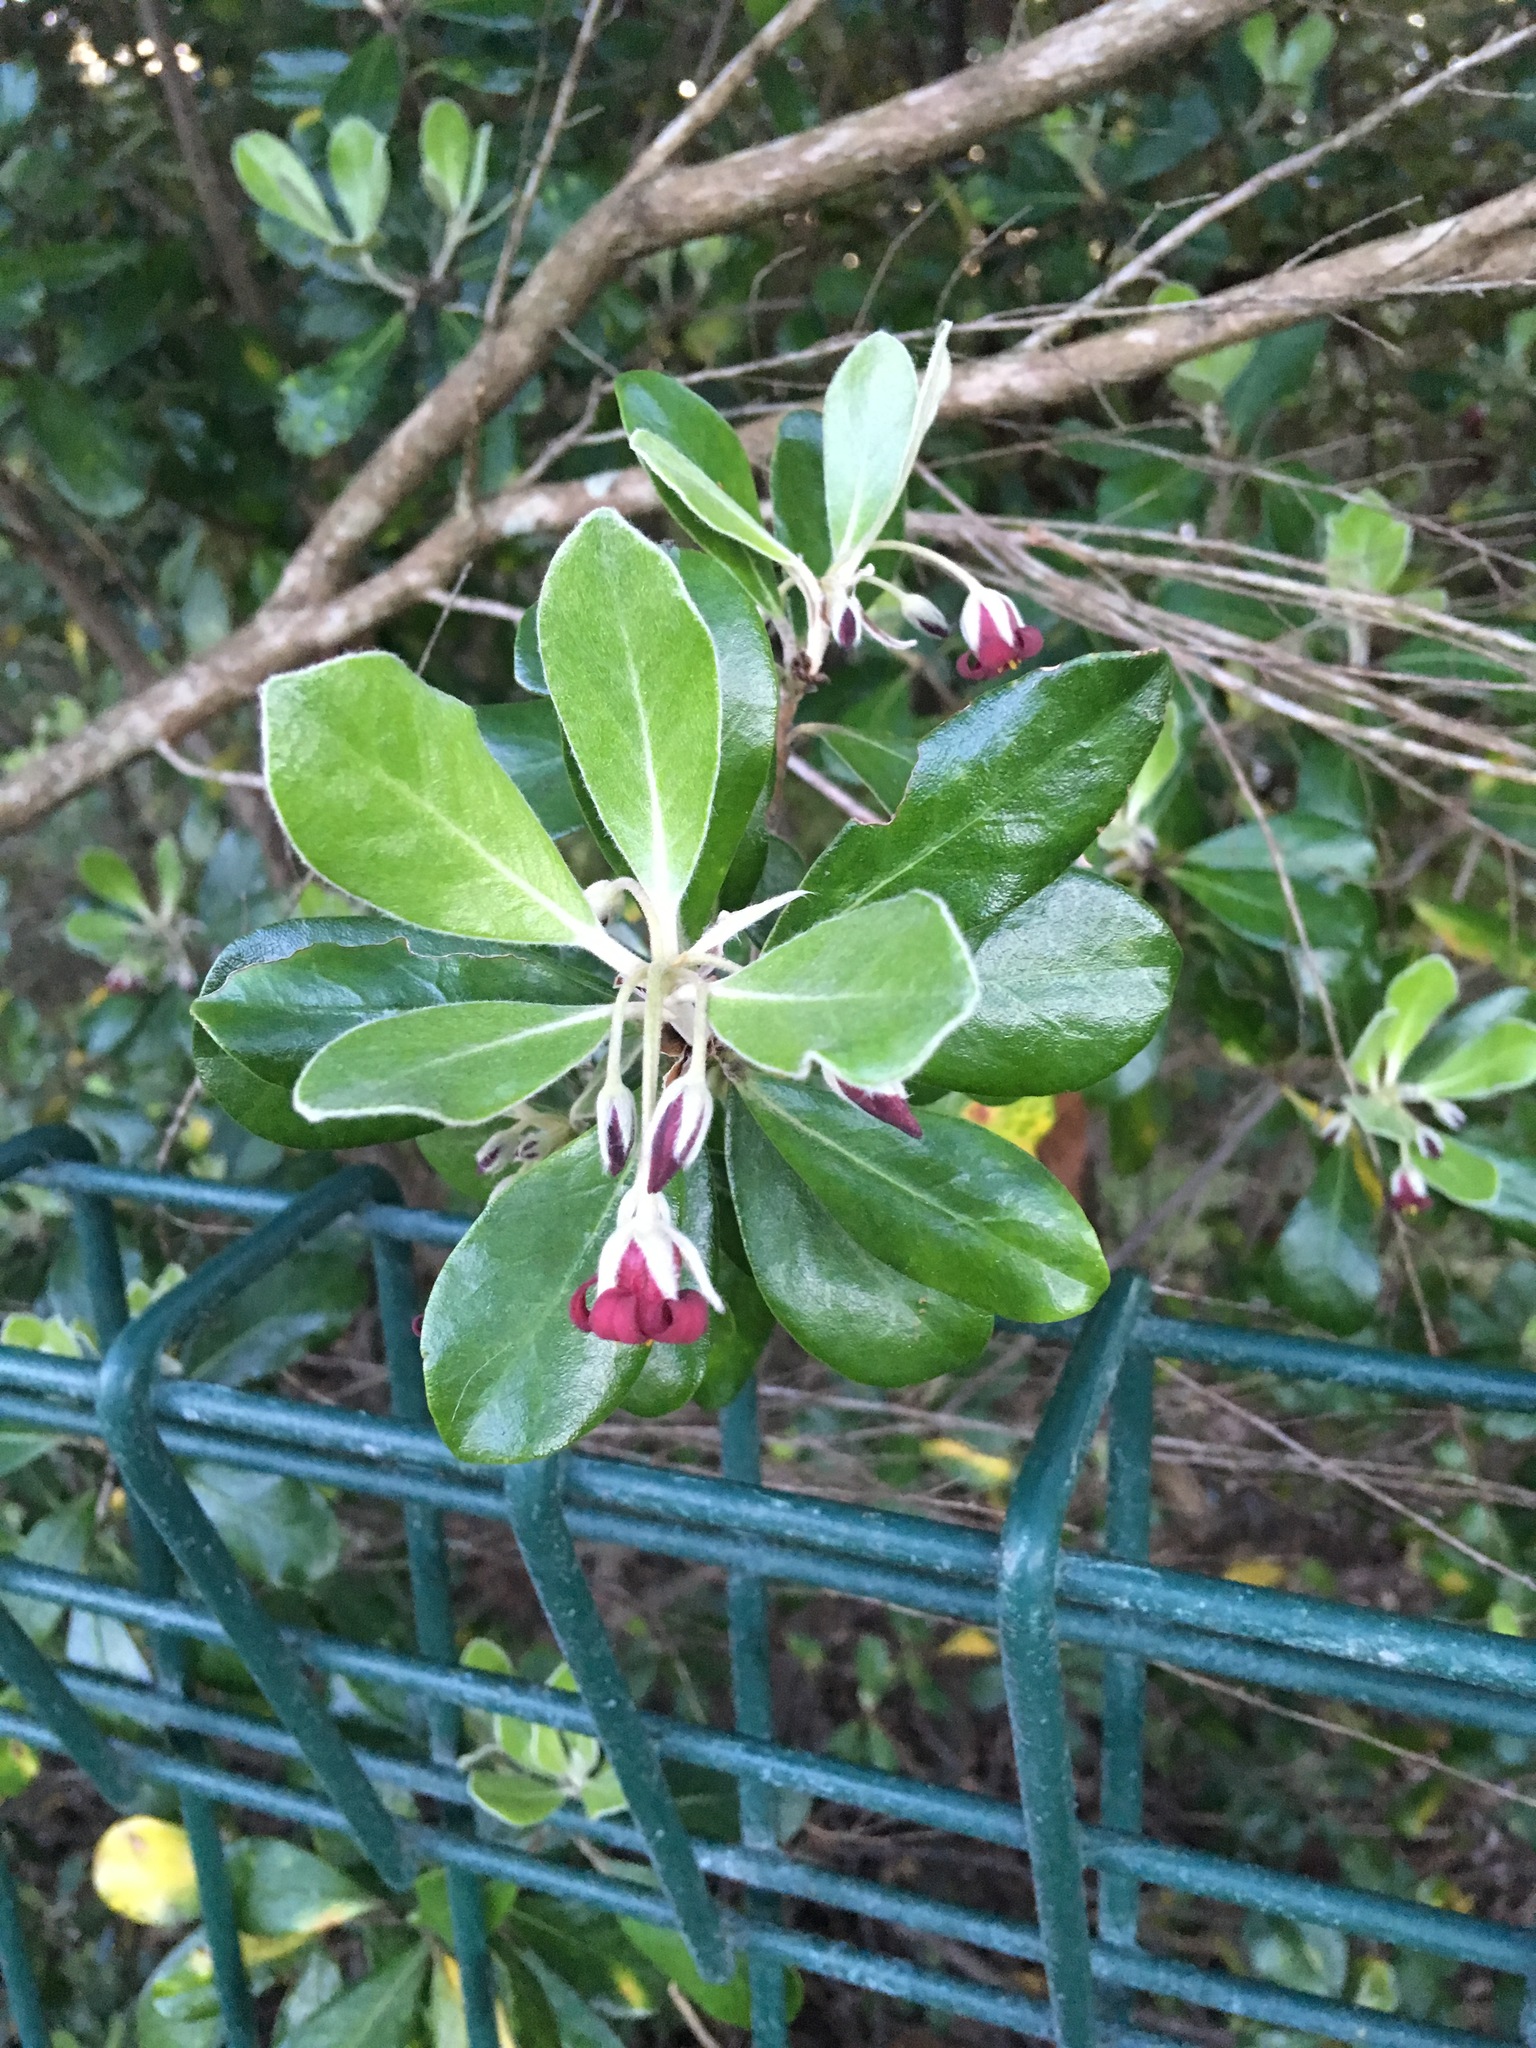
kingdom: Plantae
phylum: Tracheophyta
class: Magnoliopsida
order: Apiales
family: Pittosporaceae
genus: Pittosporum
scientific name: Pittosporum crassifolium
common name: Karo
